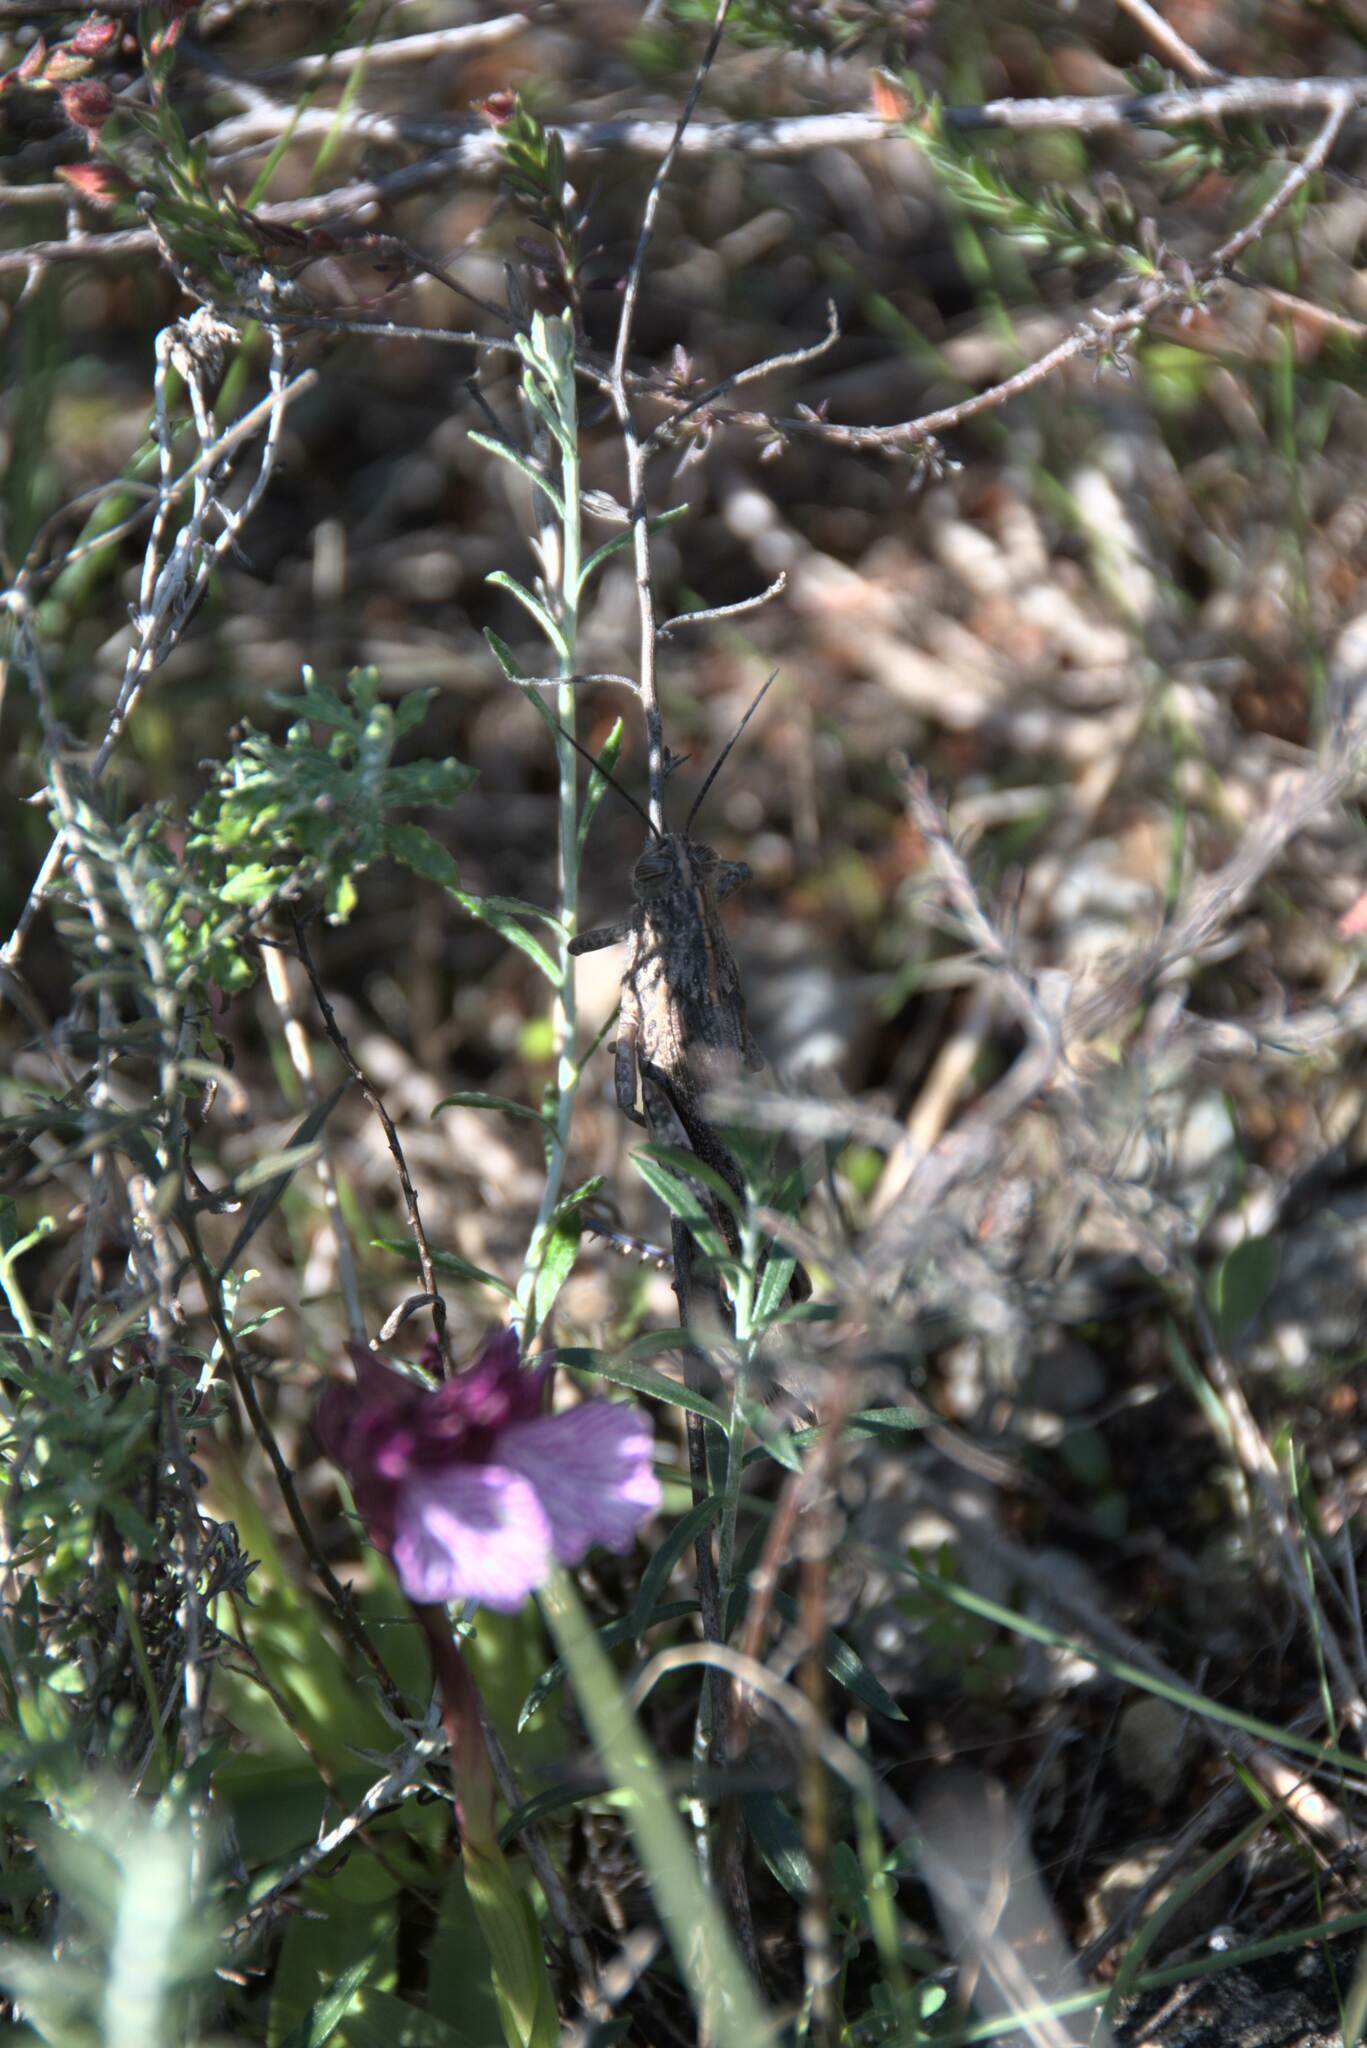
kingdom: Animalia
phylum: Arthropoda
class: Insecta
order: Orthoptera
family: Acrididae
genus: Anacridium
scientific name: Anacridium aegyptium
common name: Egyptian grasshopper
